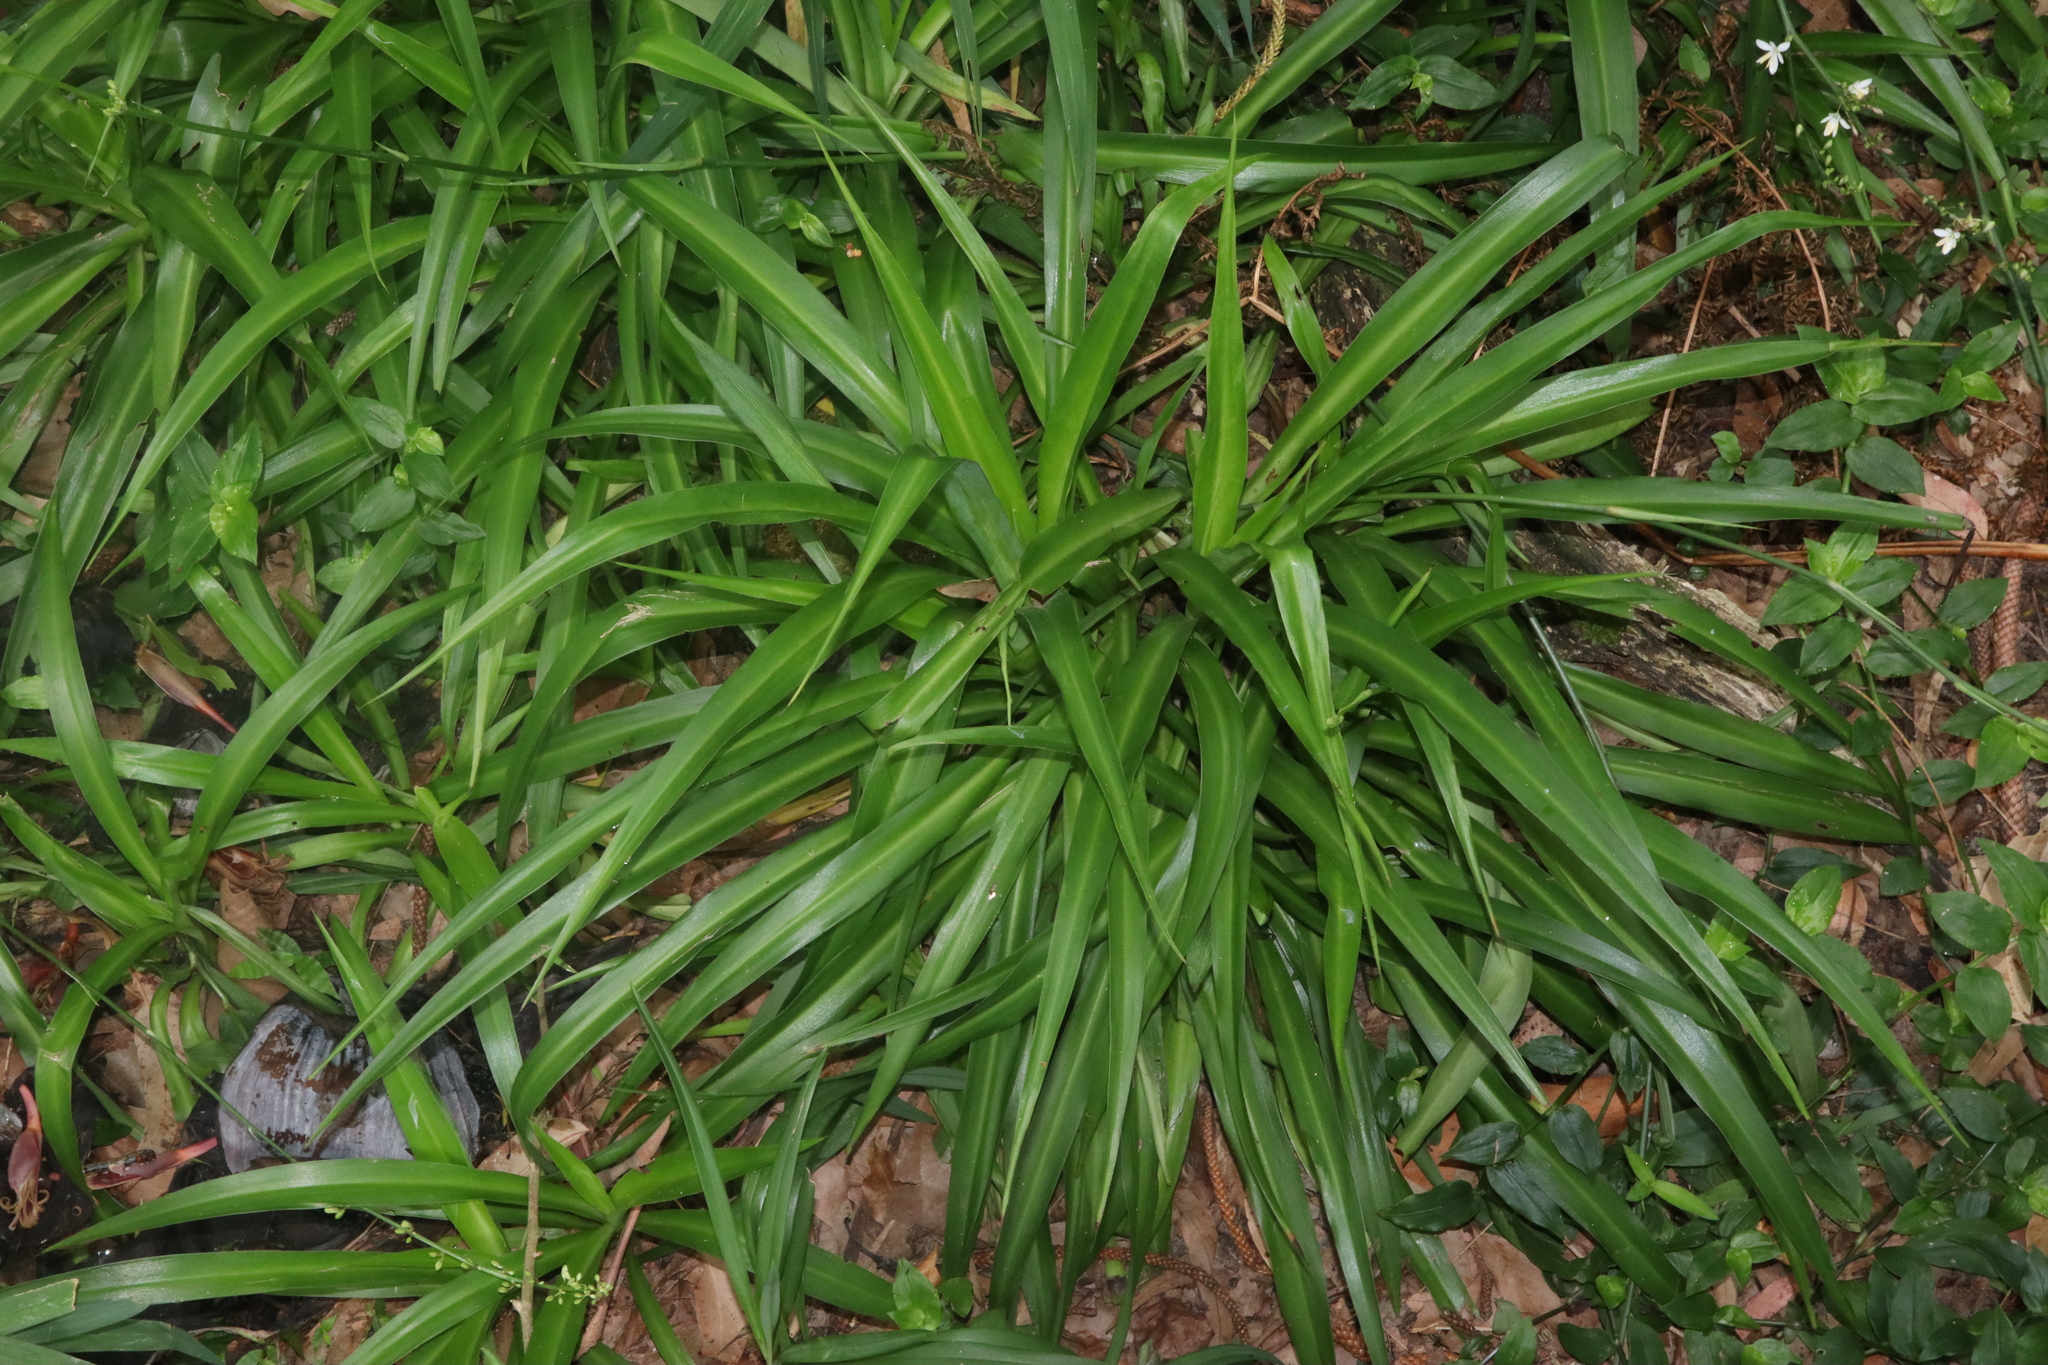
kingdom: Plantae
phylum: Tracheophyta
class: Liliopsida
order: Asparagales
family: Asparagaceae
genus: Chlorophytum
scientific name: Chlorophytum comosum
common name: Spider plant
